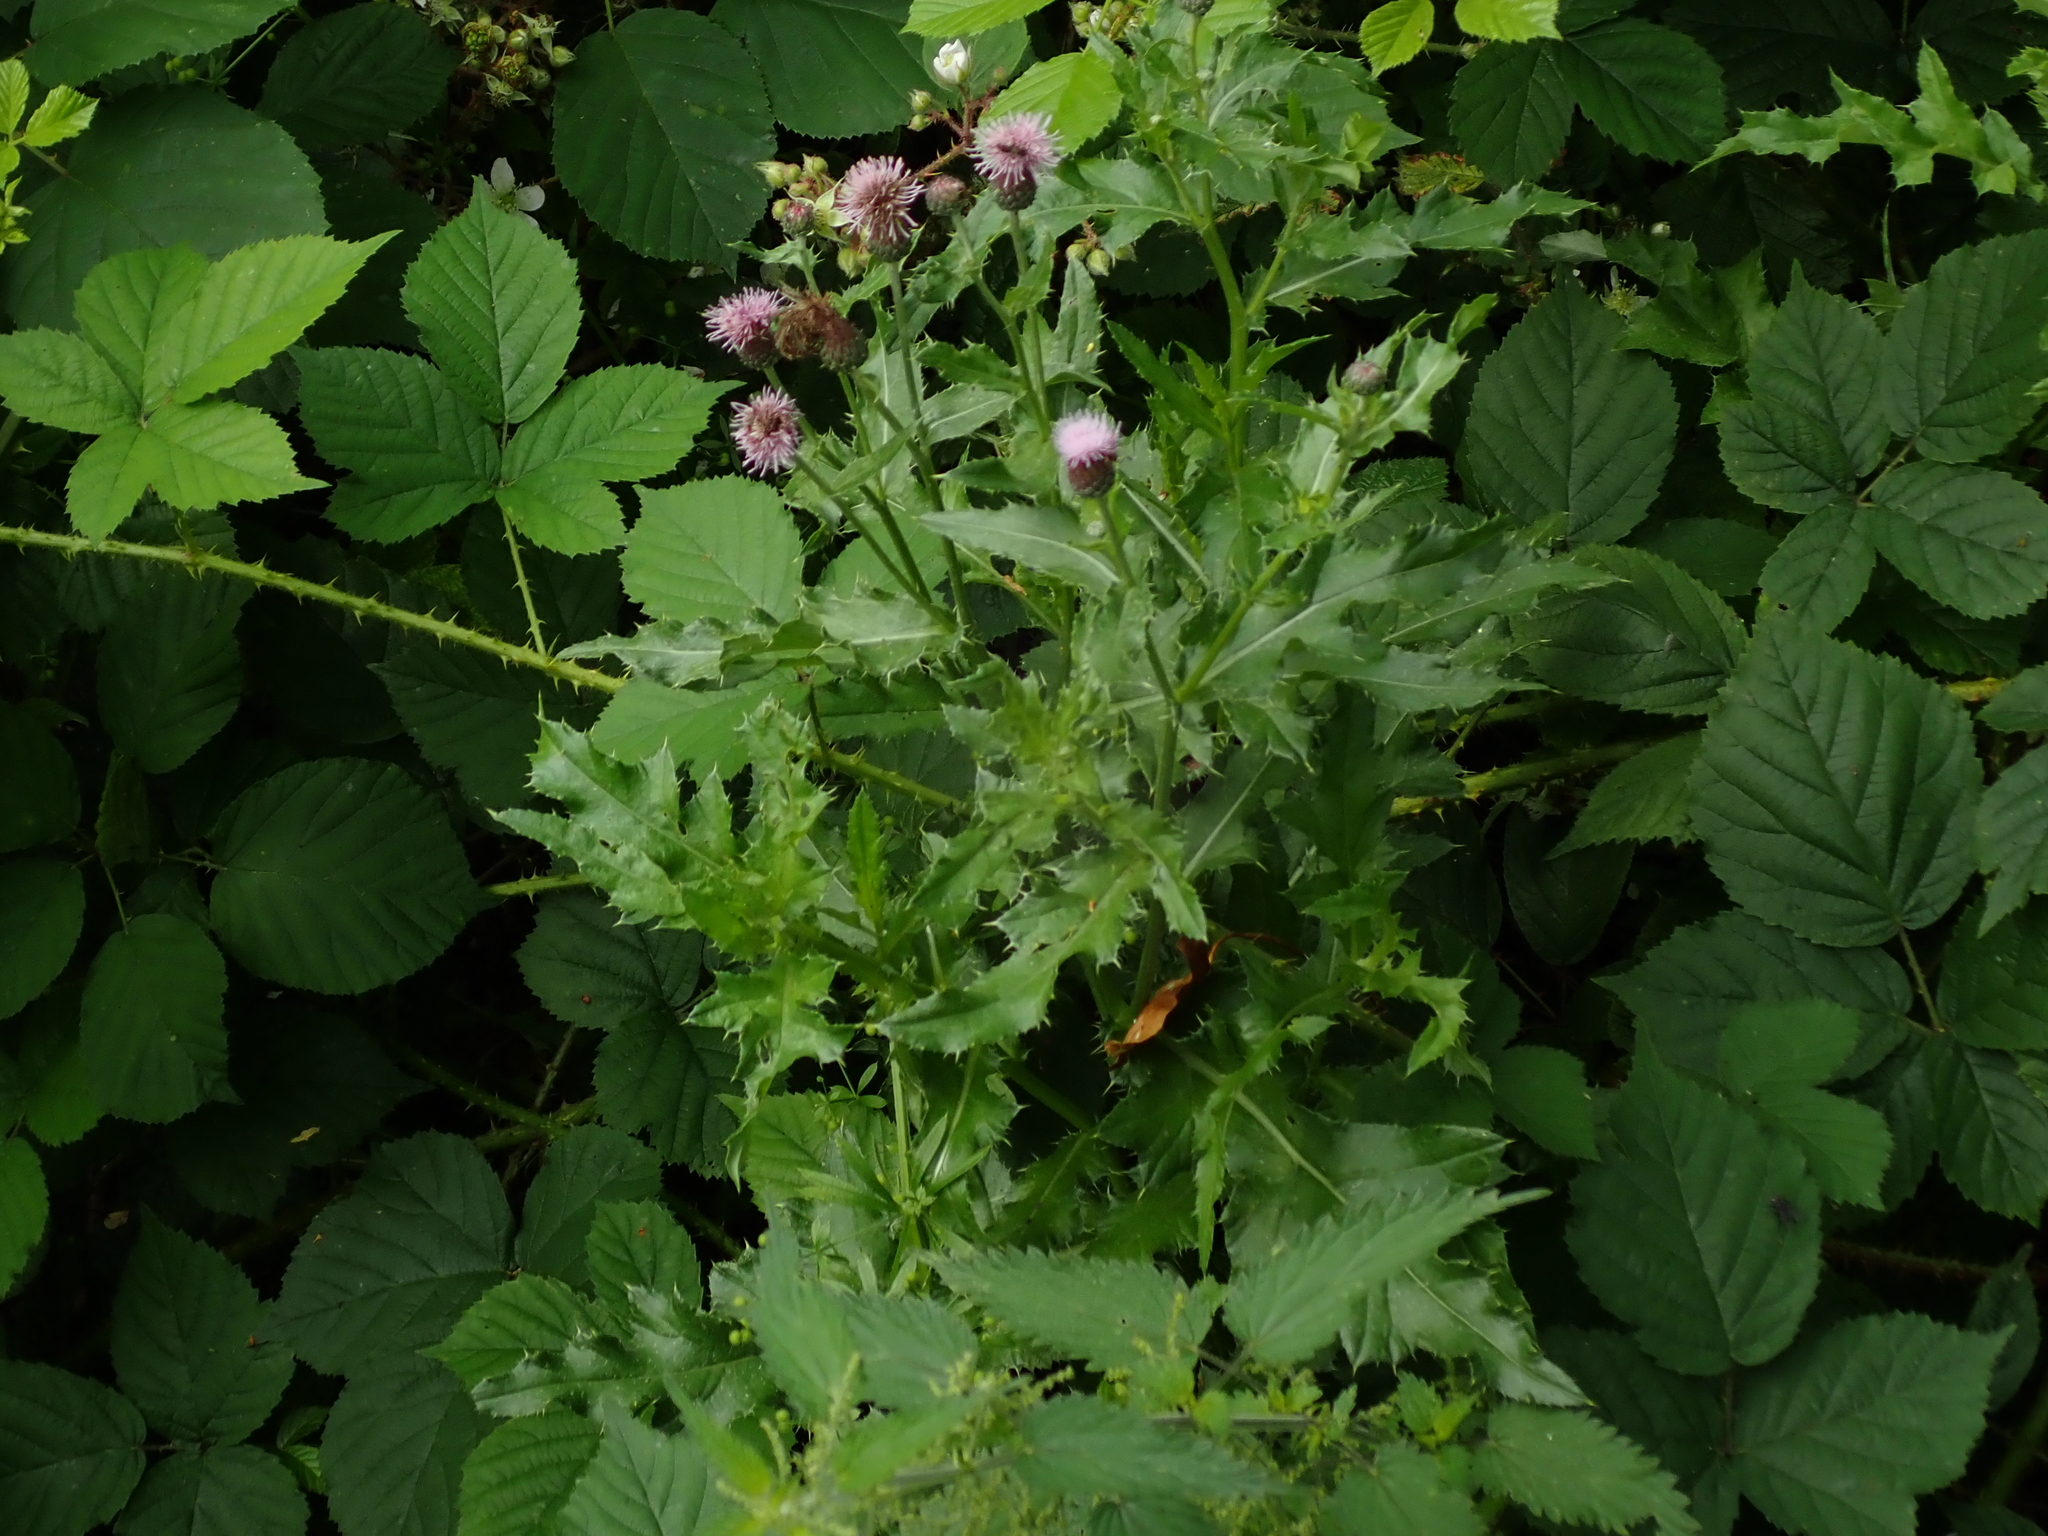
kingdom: Plantae
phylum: Tracheophyta
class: Magnoliopsida
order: Asterales
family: Asteraceae
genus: Cirsium
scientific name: Cirsium arvense
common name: Creeping thistle
